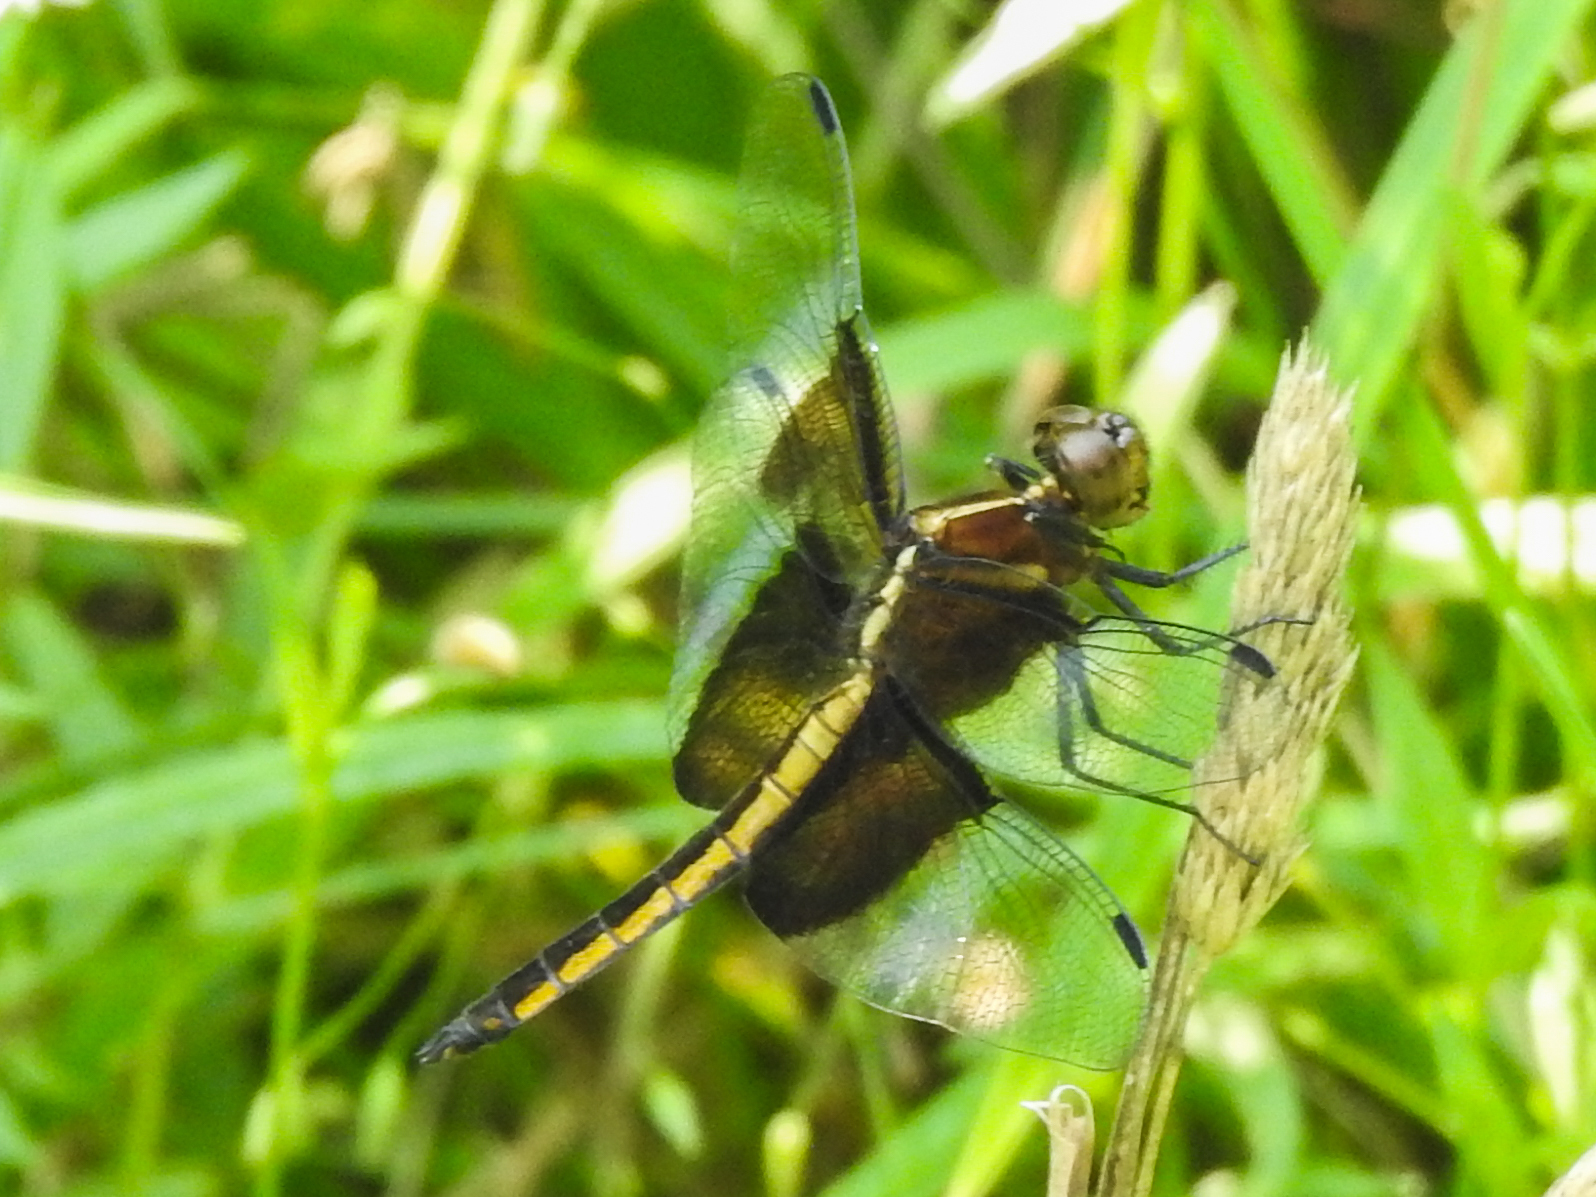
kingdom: Animalia
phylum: Arthropoda
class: Insecta
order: Odonata
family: Libellulidae
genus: Libellula
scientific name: Libellula luctuosa
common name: Widow skimmer
